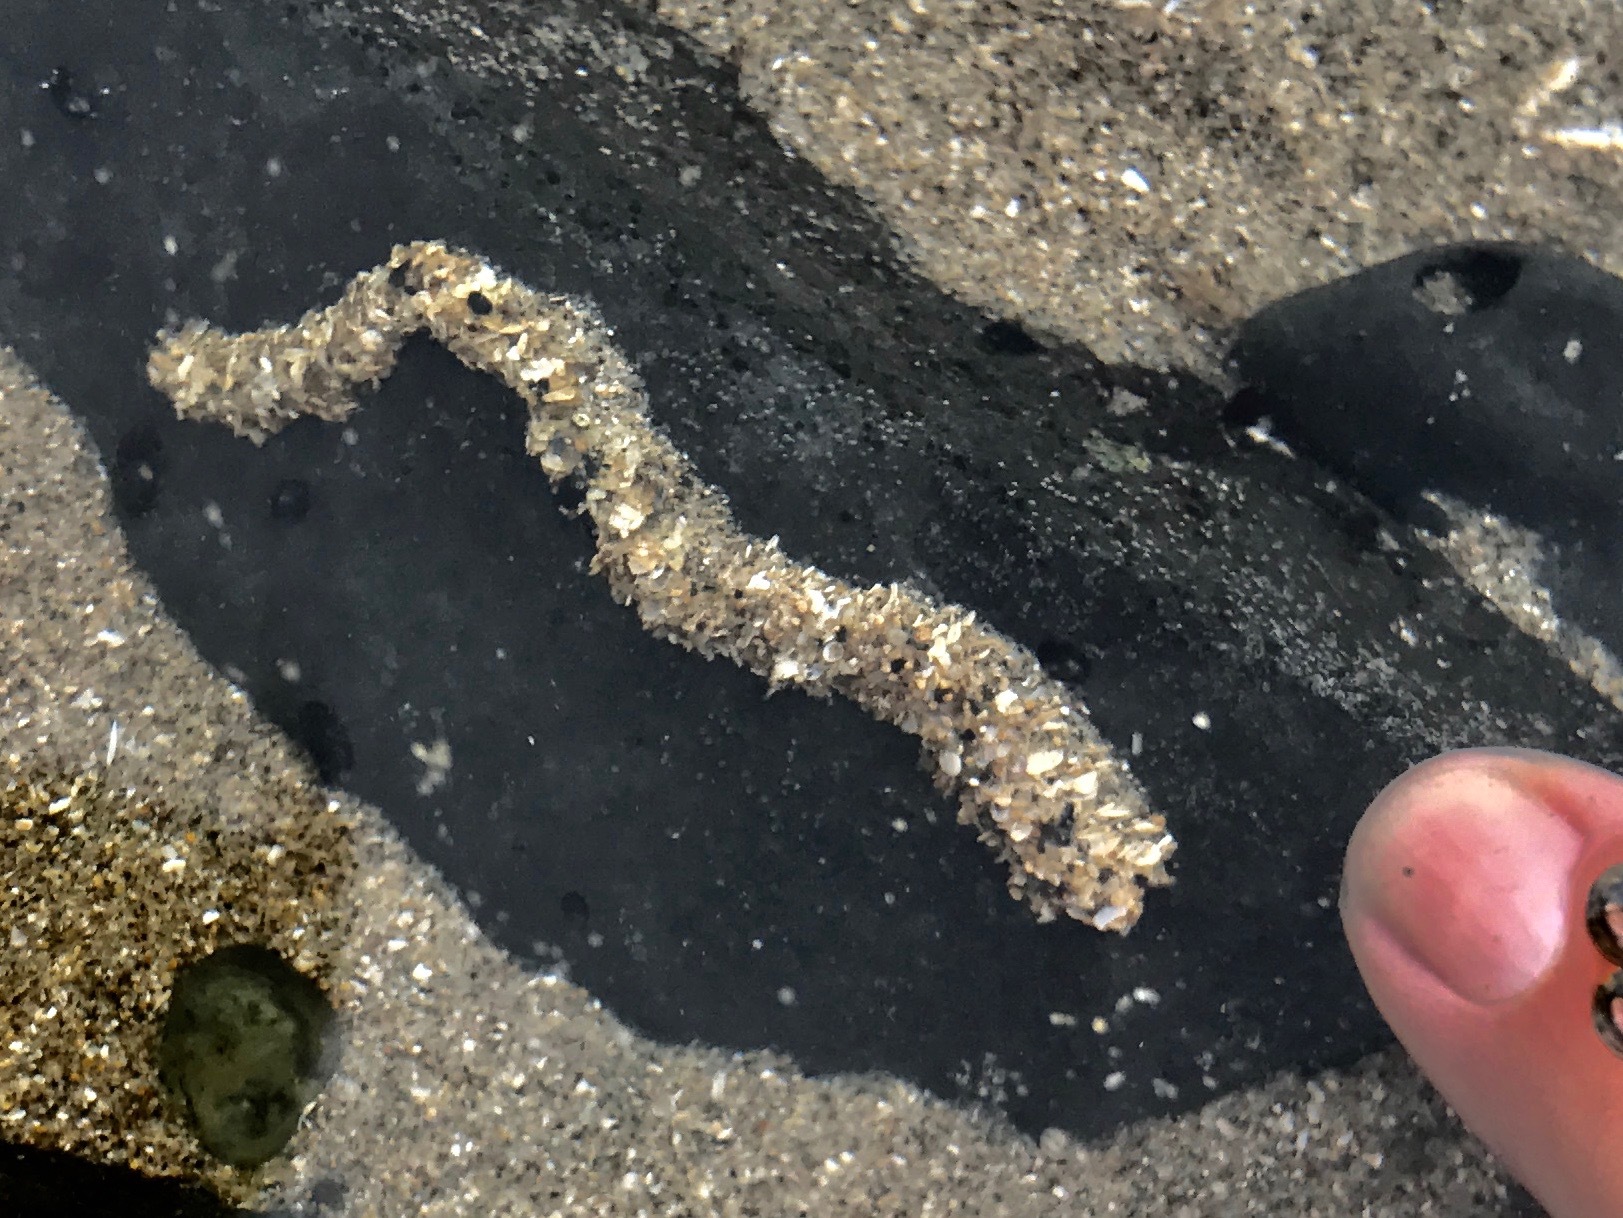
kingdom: Animalia
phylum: Annelida
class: Polychaeta
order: Sabellida
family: Sabellariidae
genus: Phragmatopoma
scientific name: Phragmatopoma californica
